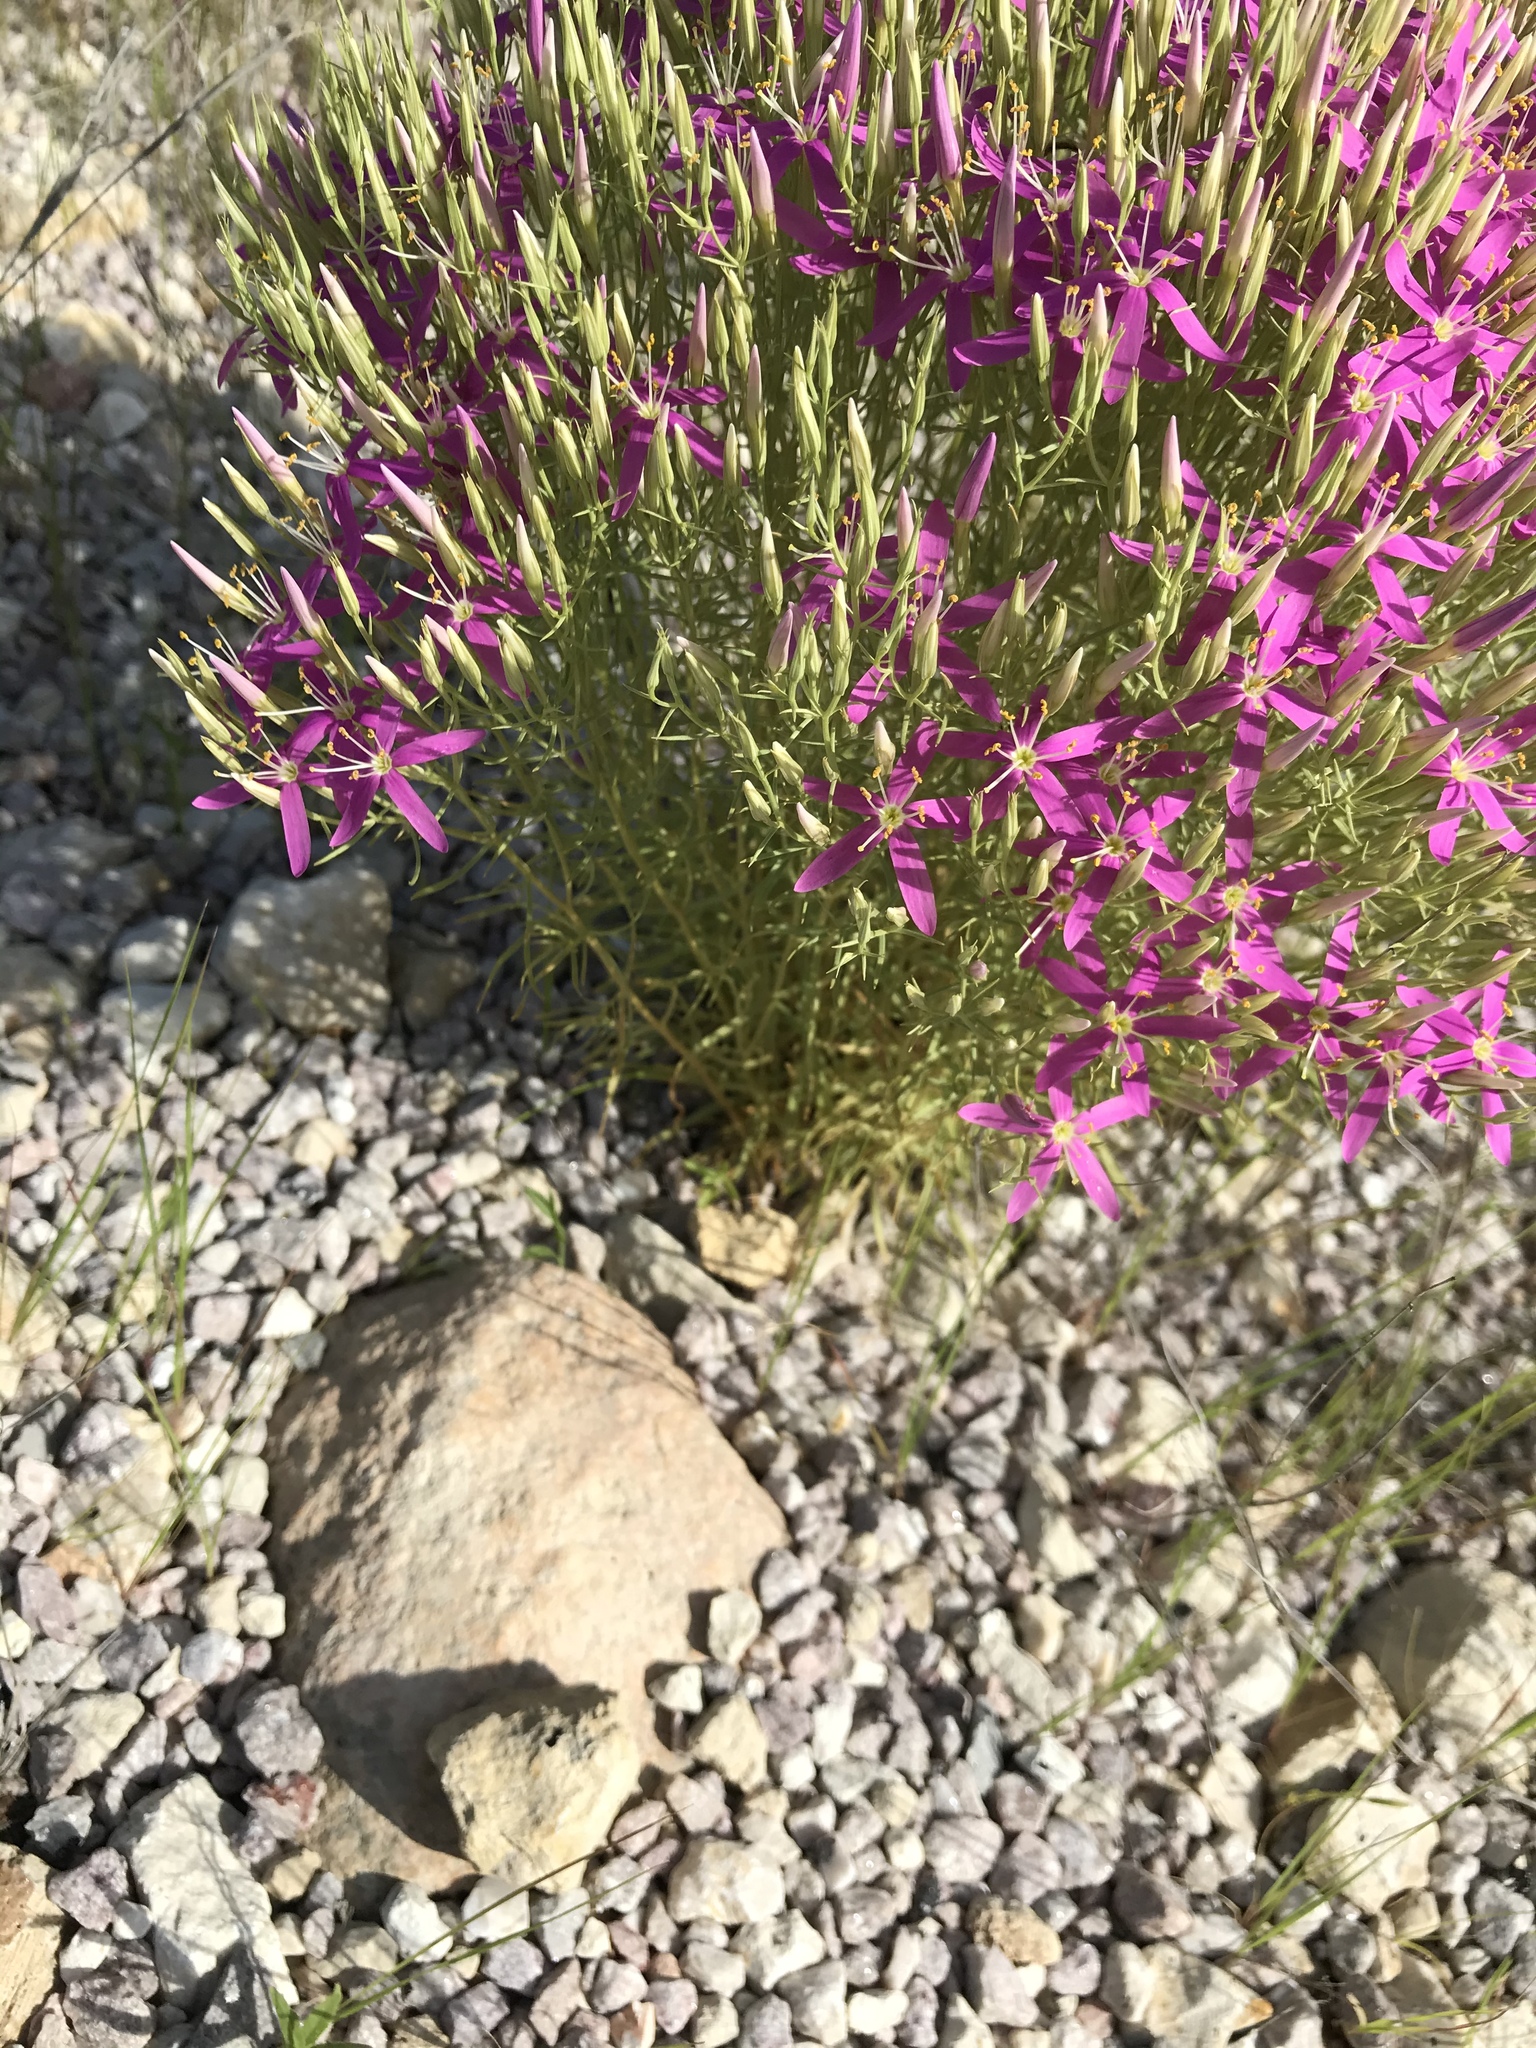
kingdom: Plantae
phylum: Tracheophyta
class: Magnoliopsida
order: Gentianales
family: Gentianaceae
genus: Zeltnera
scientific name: Zeltnera beyrichii
